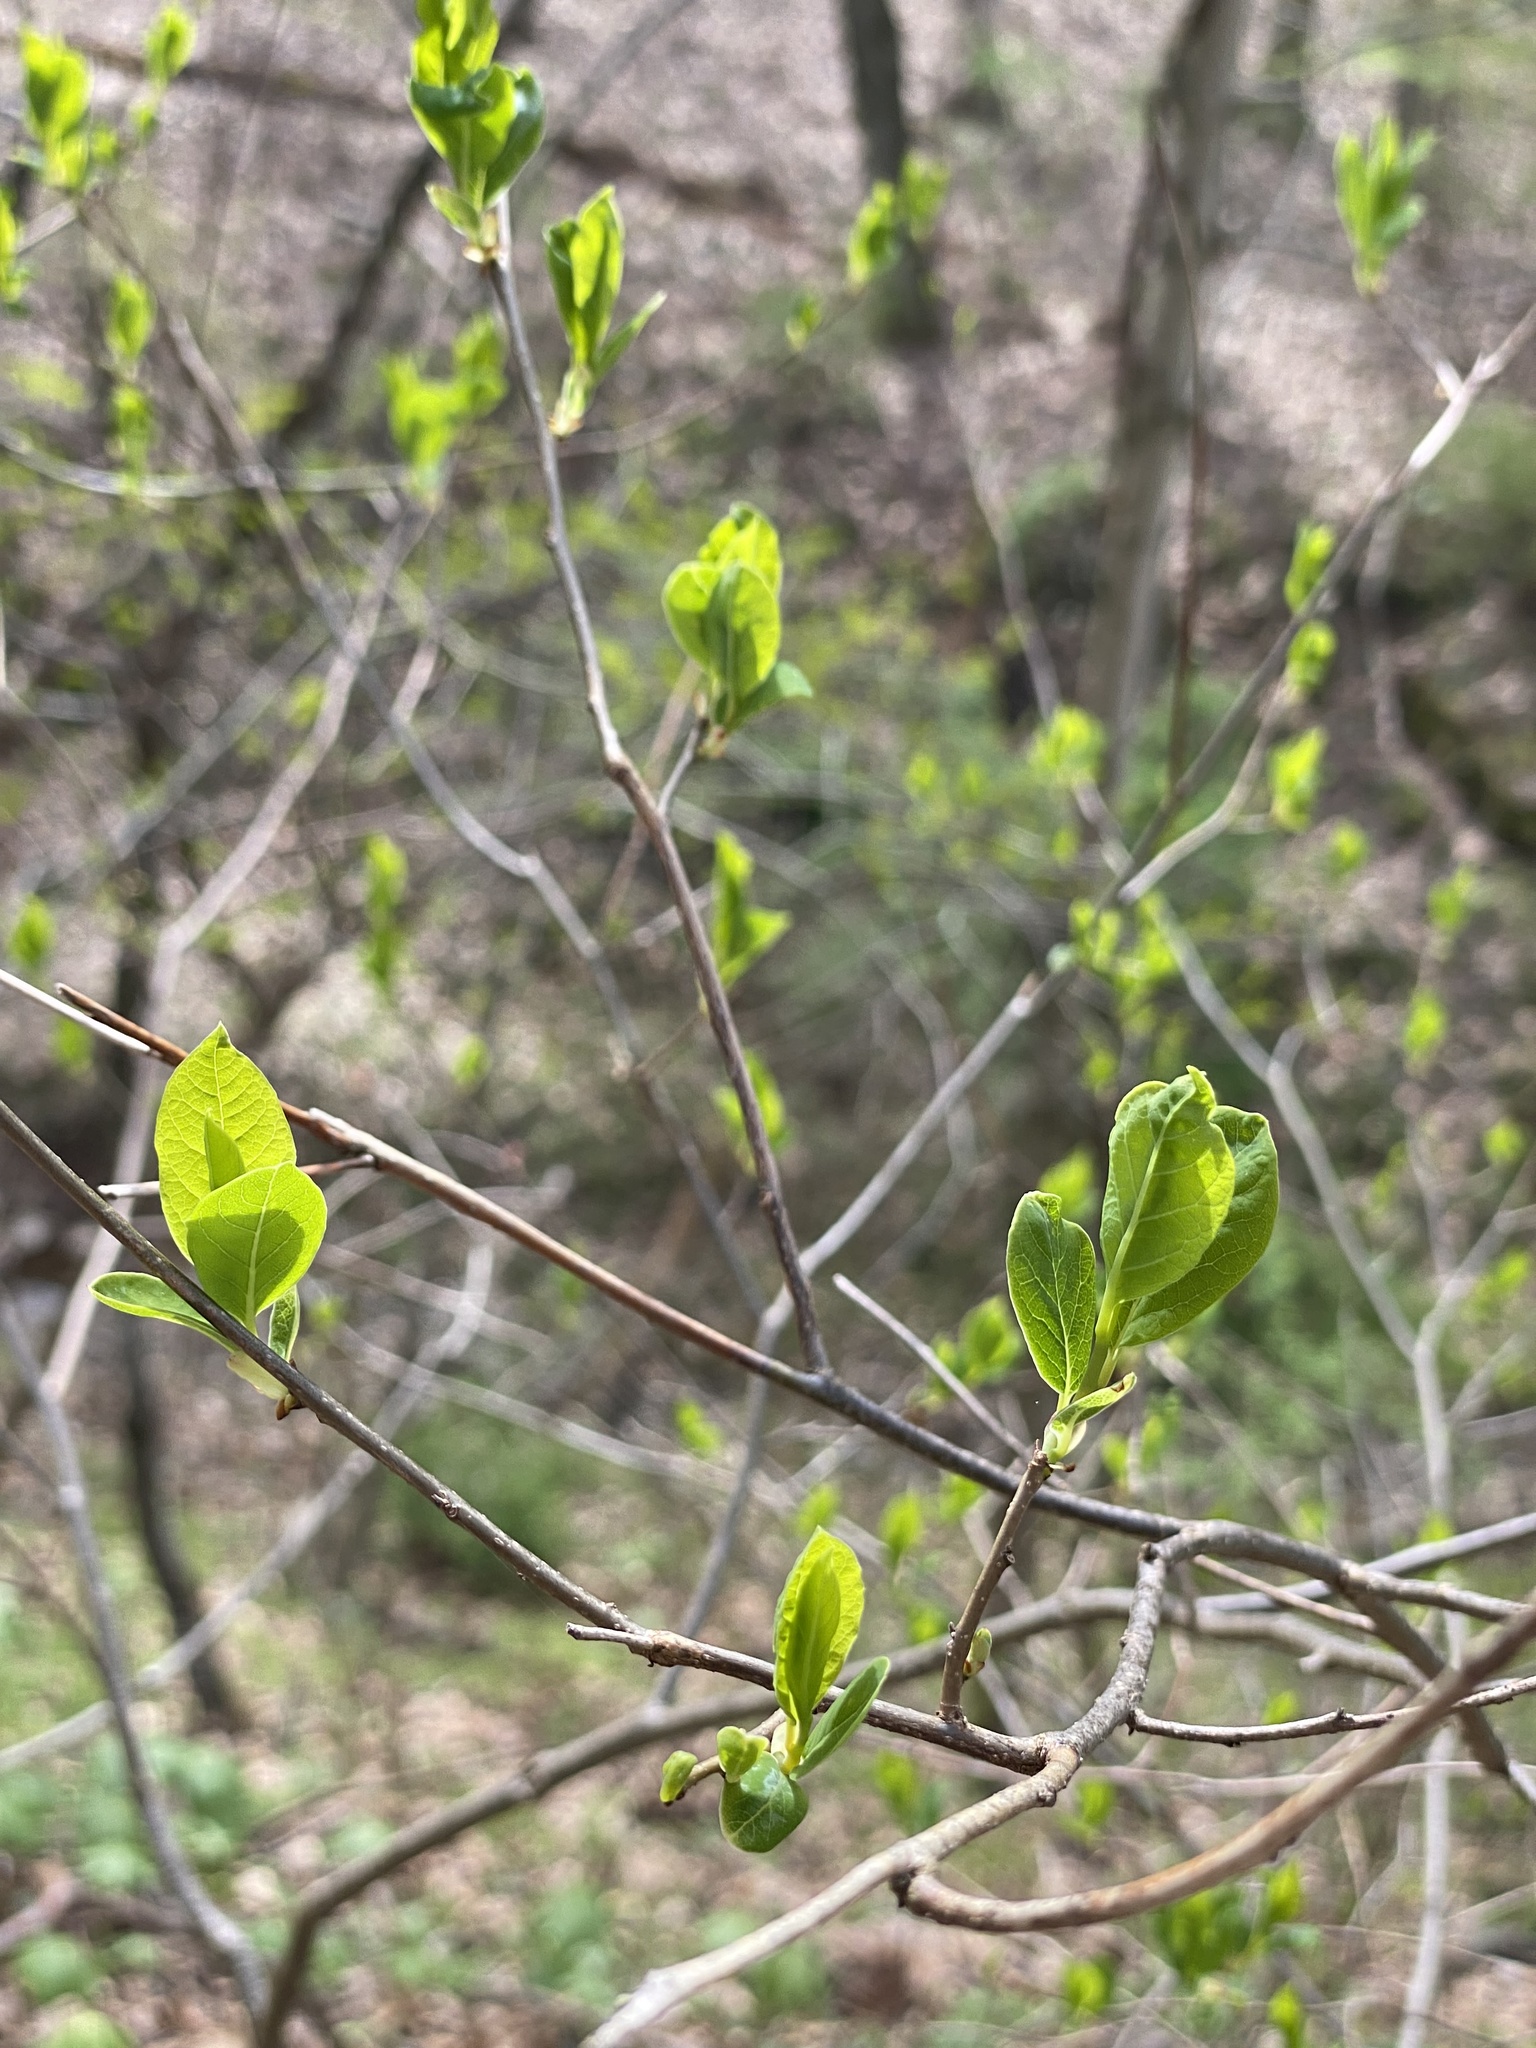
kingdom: Plantae
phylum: Tracheophyta
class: Magnoliopsida
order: Laurales
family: Lauraceae
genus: Lindera
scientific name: Lindera benzoin
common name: Spicebush
